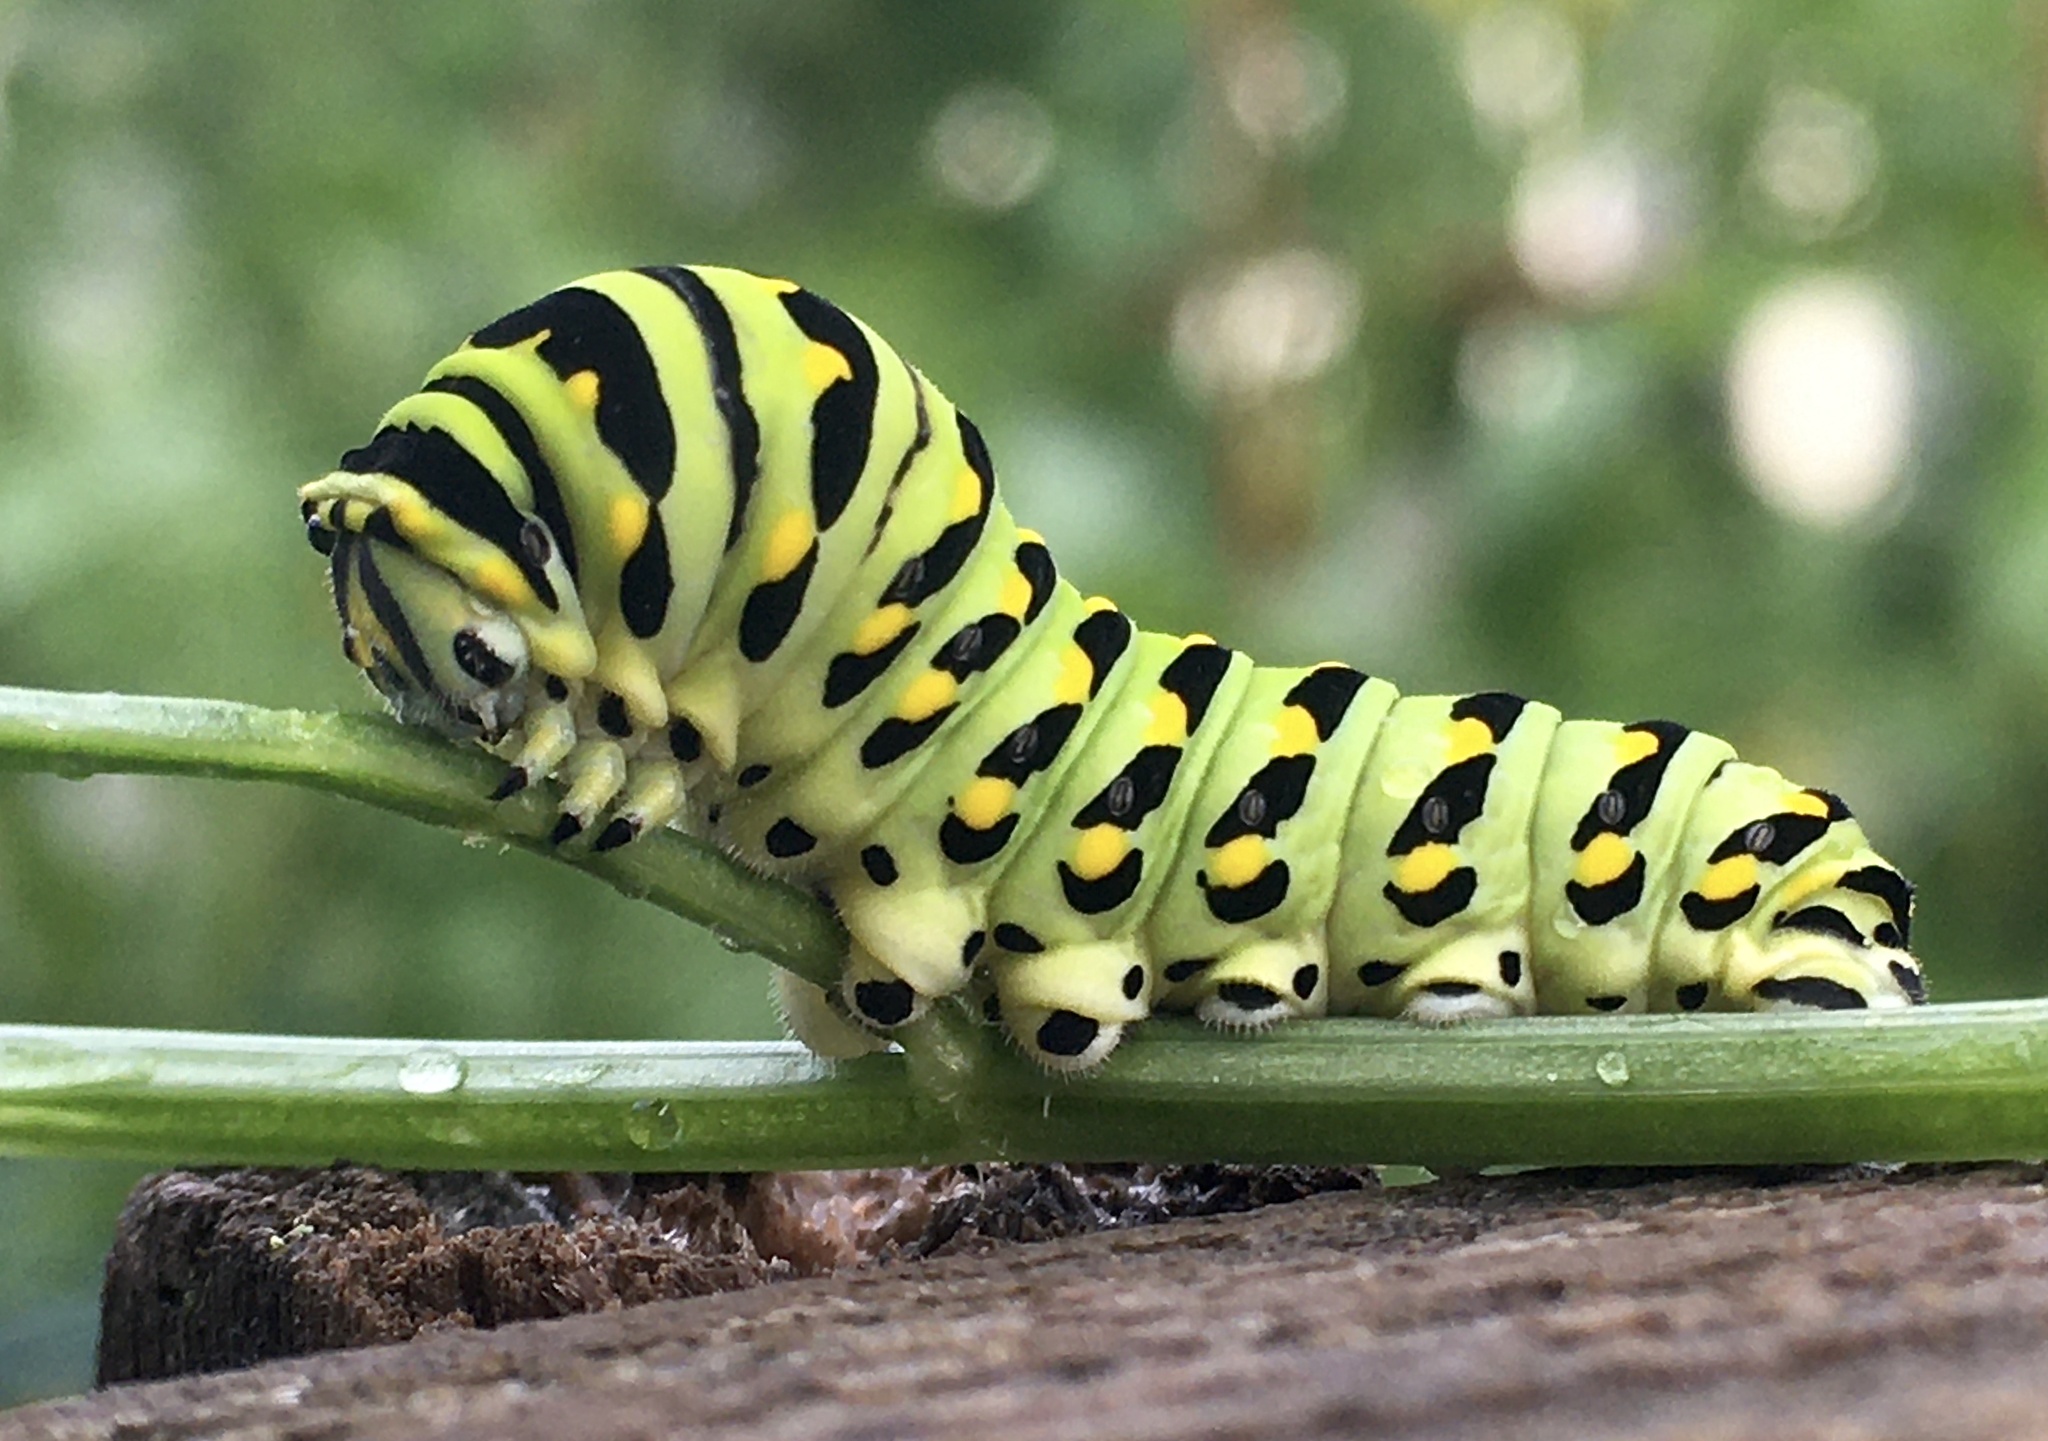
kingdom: Animalia
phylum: Arthropoda
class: Insecta
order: Lepidoptera
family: Papilionidae
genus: Papilio
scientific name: Papilio polyxenes
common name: Black swallowtail
